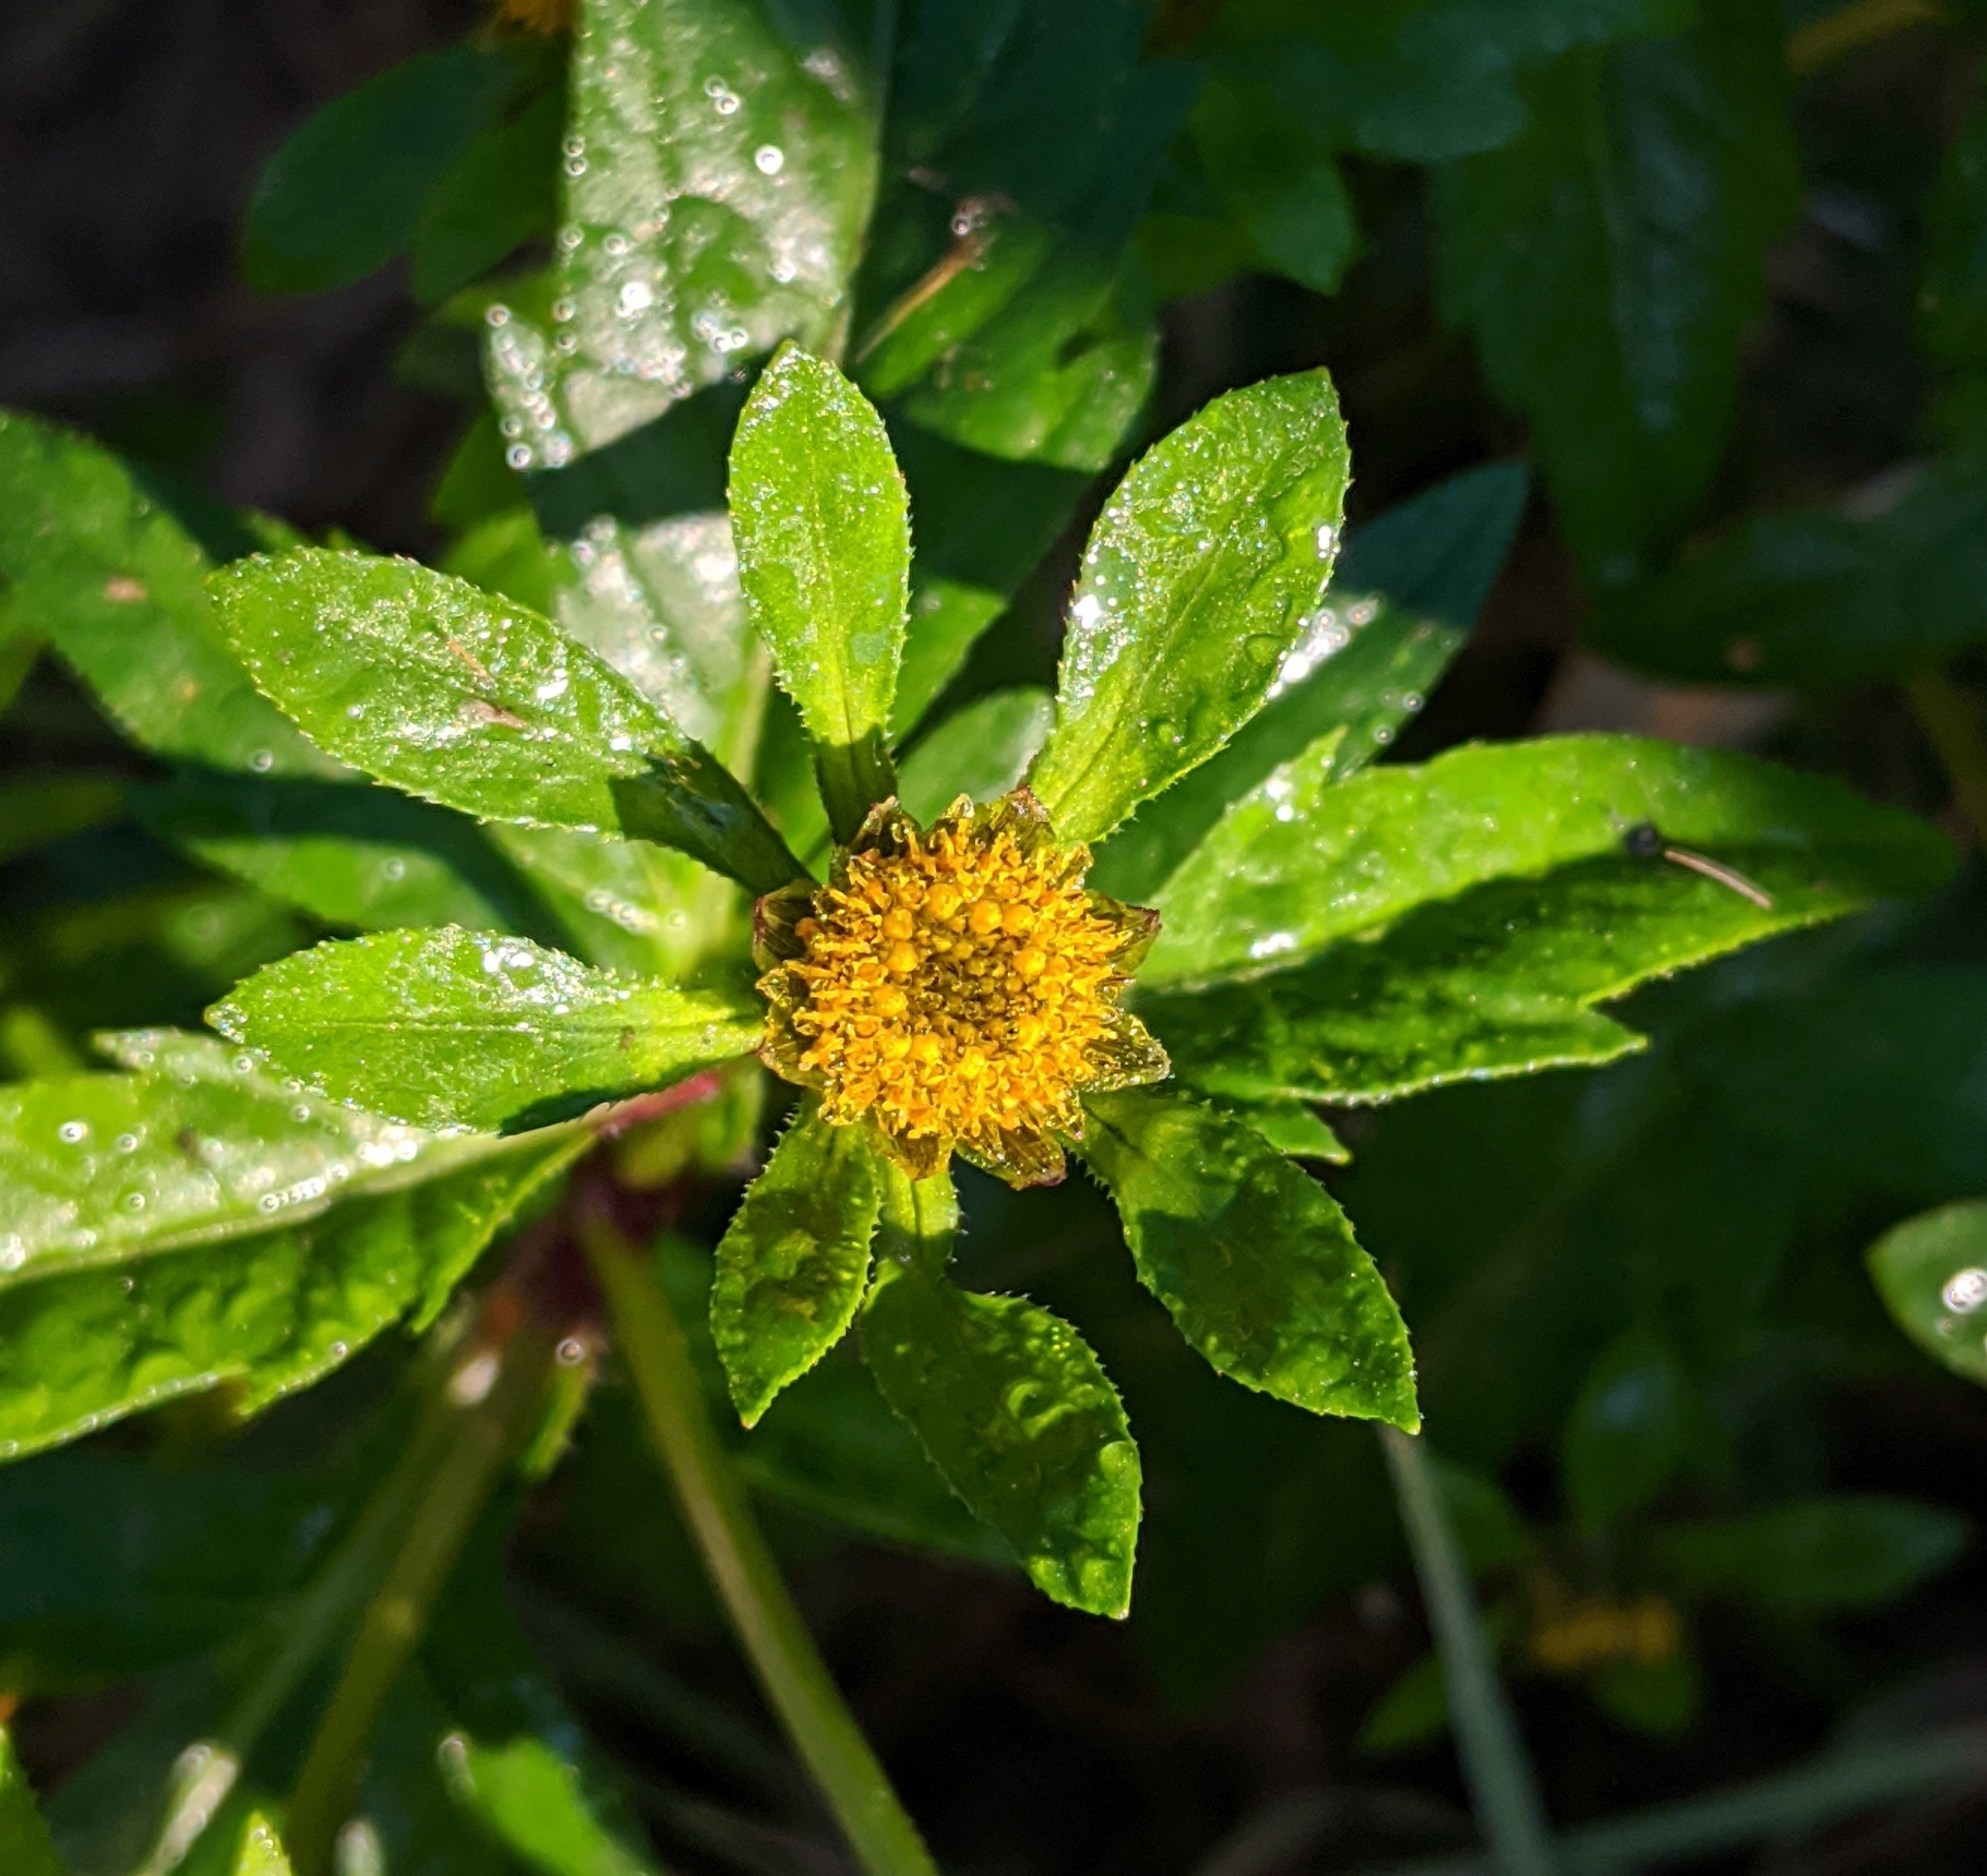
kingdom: Plantae
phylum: Tracheophyta
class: Magnoliopsida
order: Asterales
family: Asteraceae
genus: Bidens
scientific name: Bidens tripartita
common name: Trifid bur-marigold
